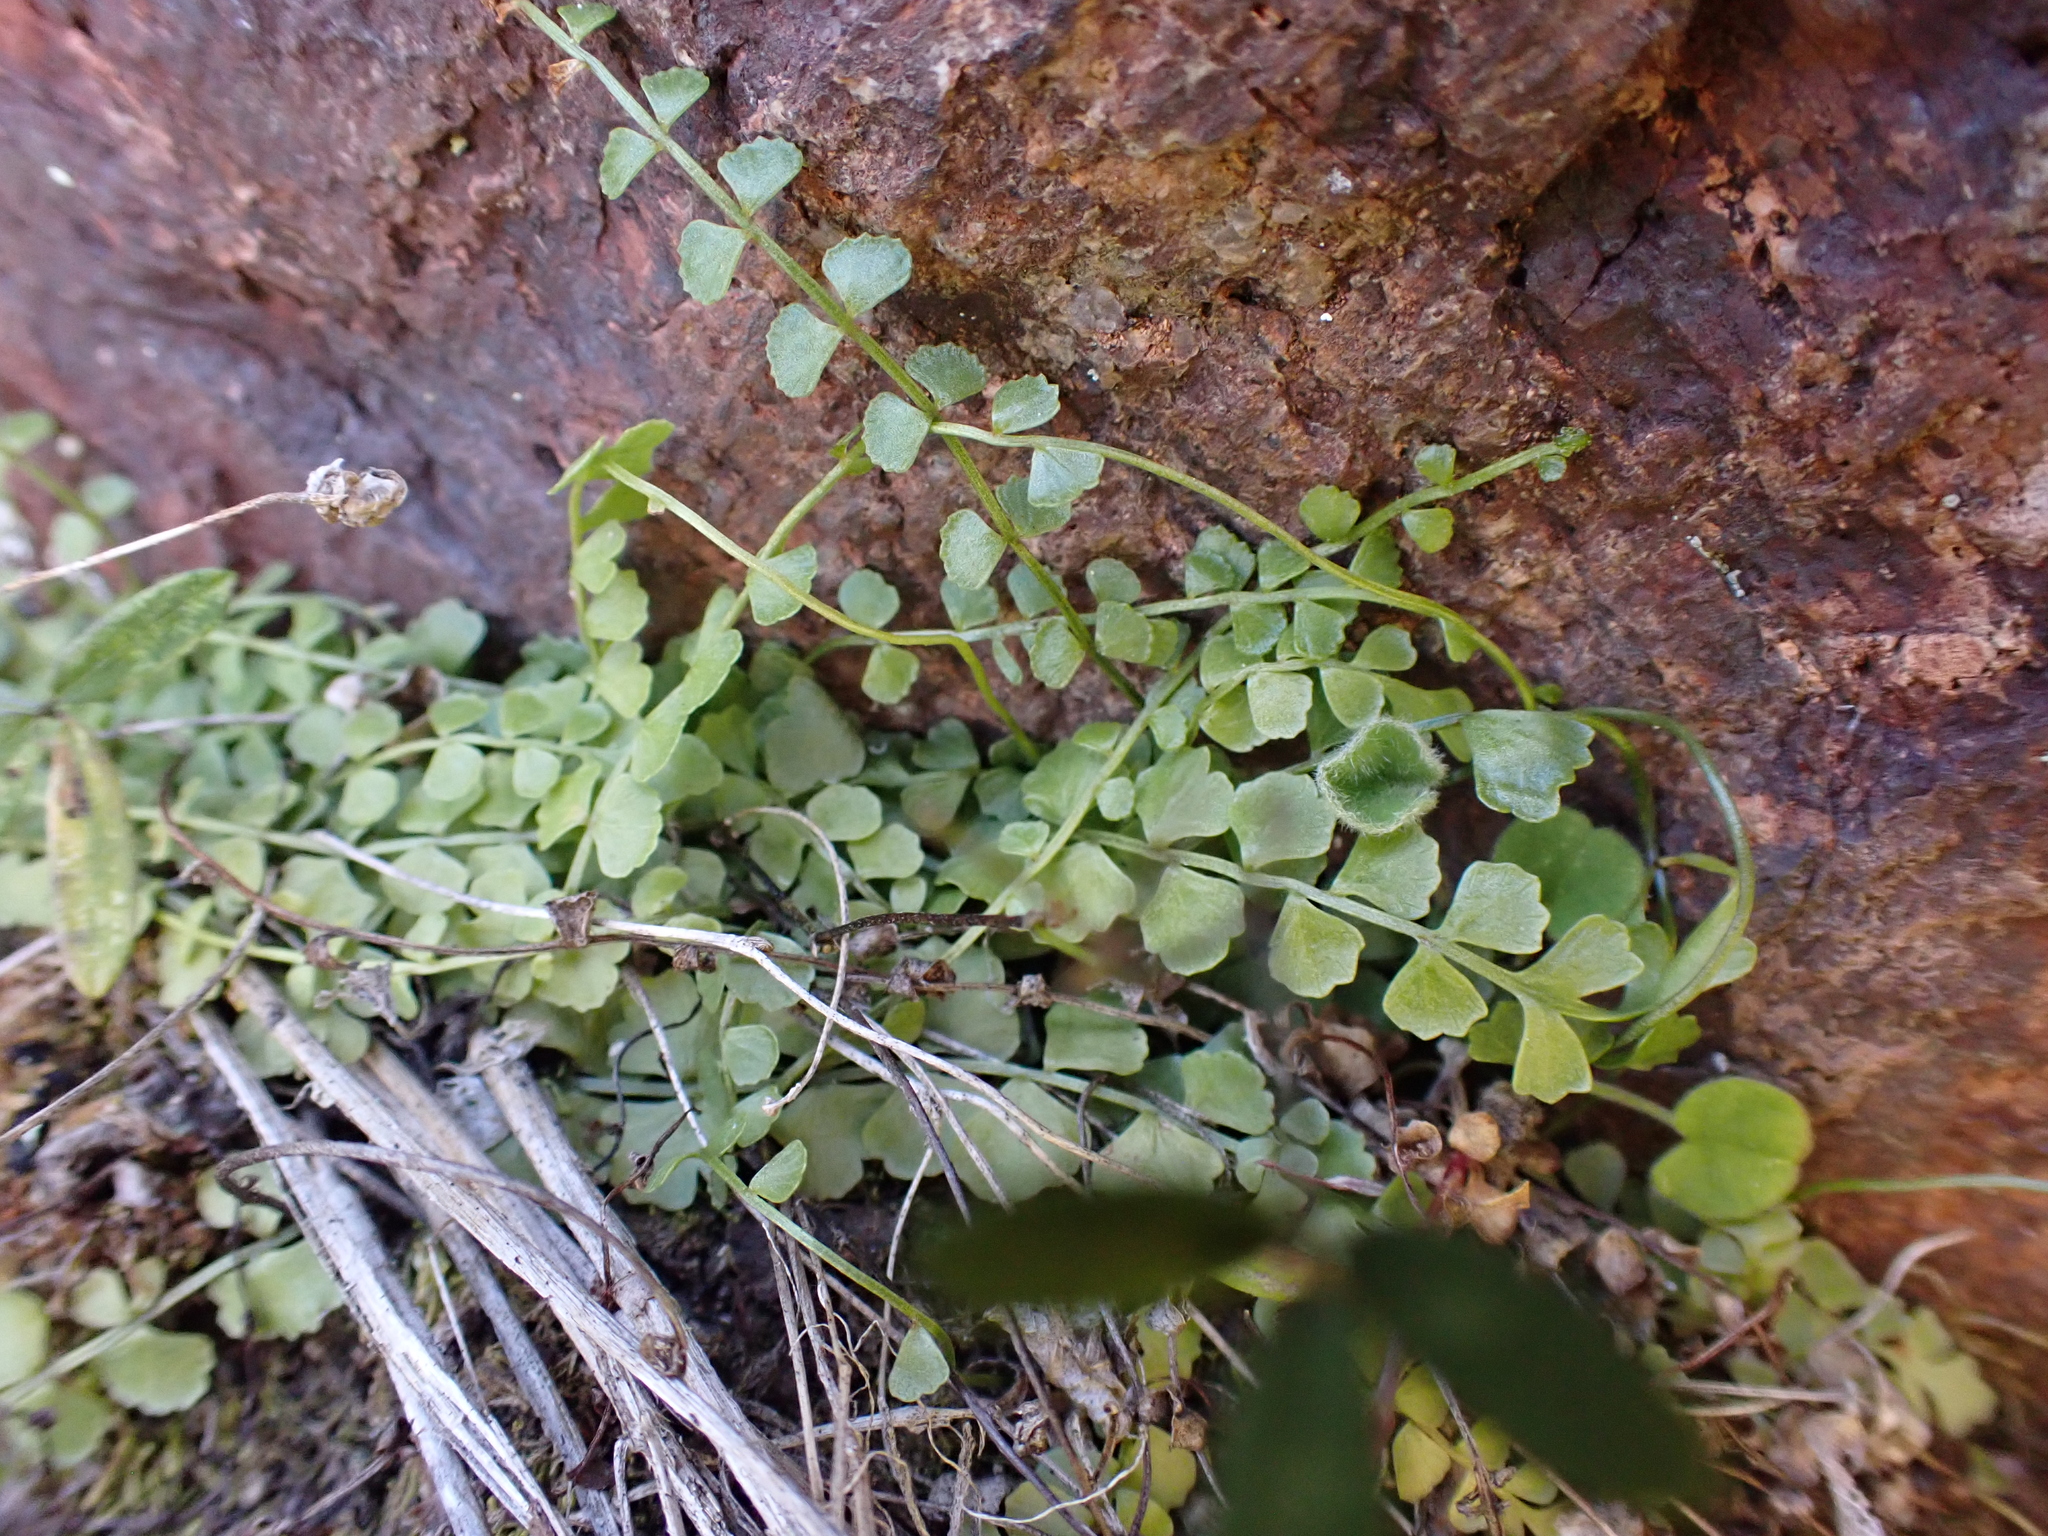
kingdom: Plantae
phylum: Tracheophyta
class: Polypodiopsida
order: Polypodiales
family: Aspleniaceae
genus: Asplenium
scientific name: Asplenium flabellifolium
